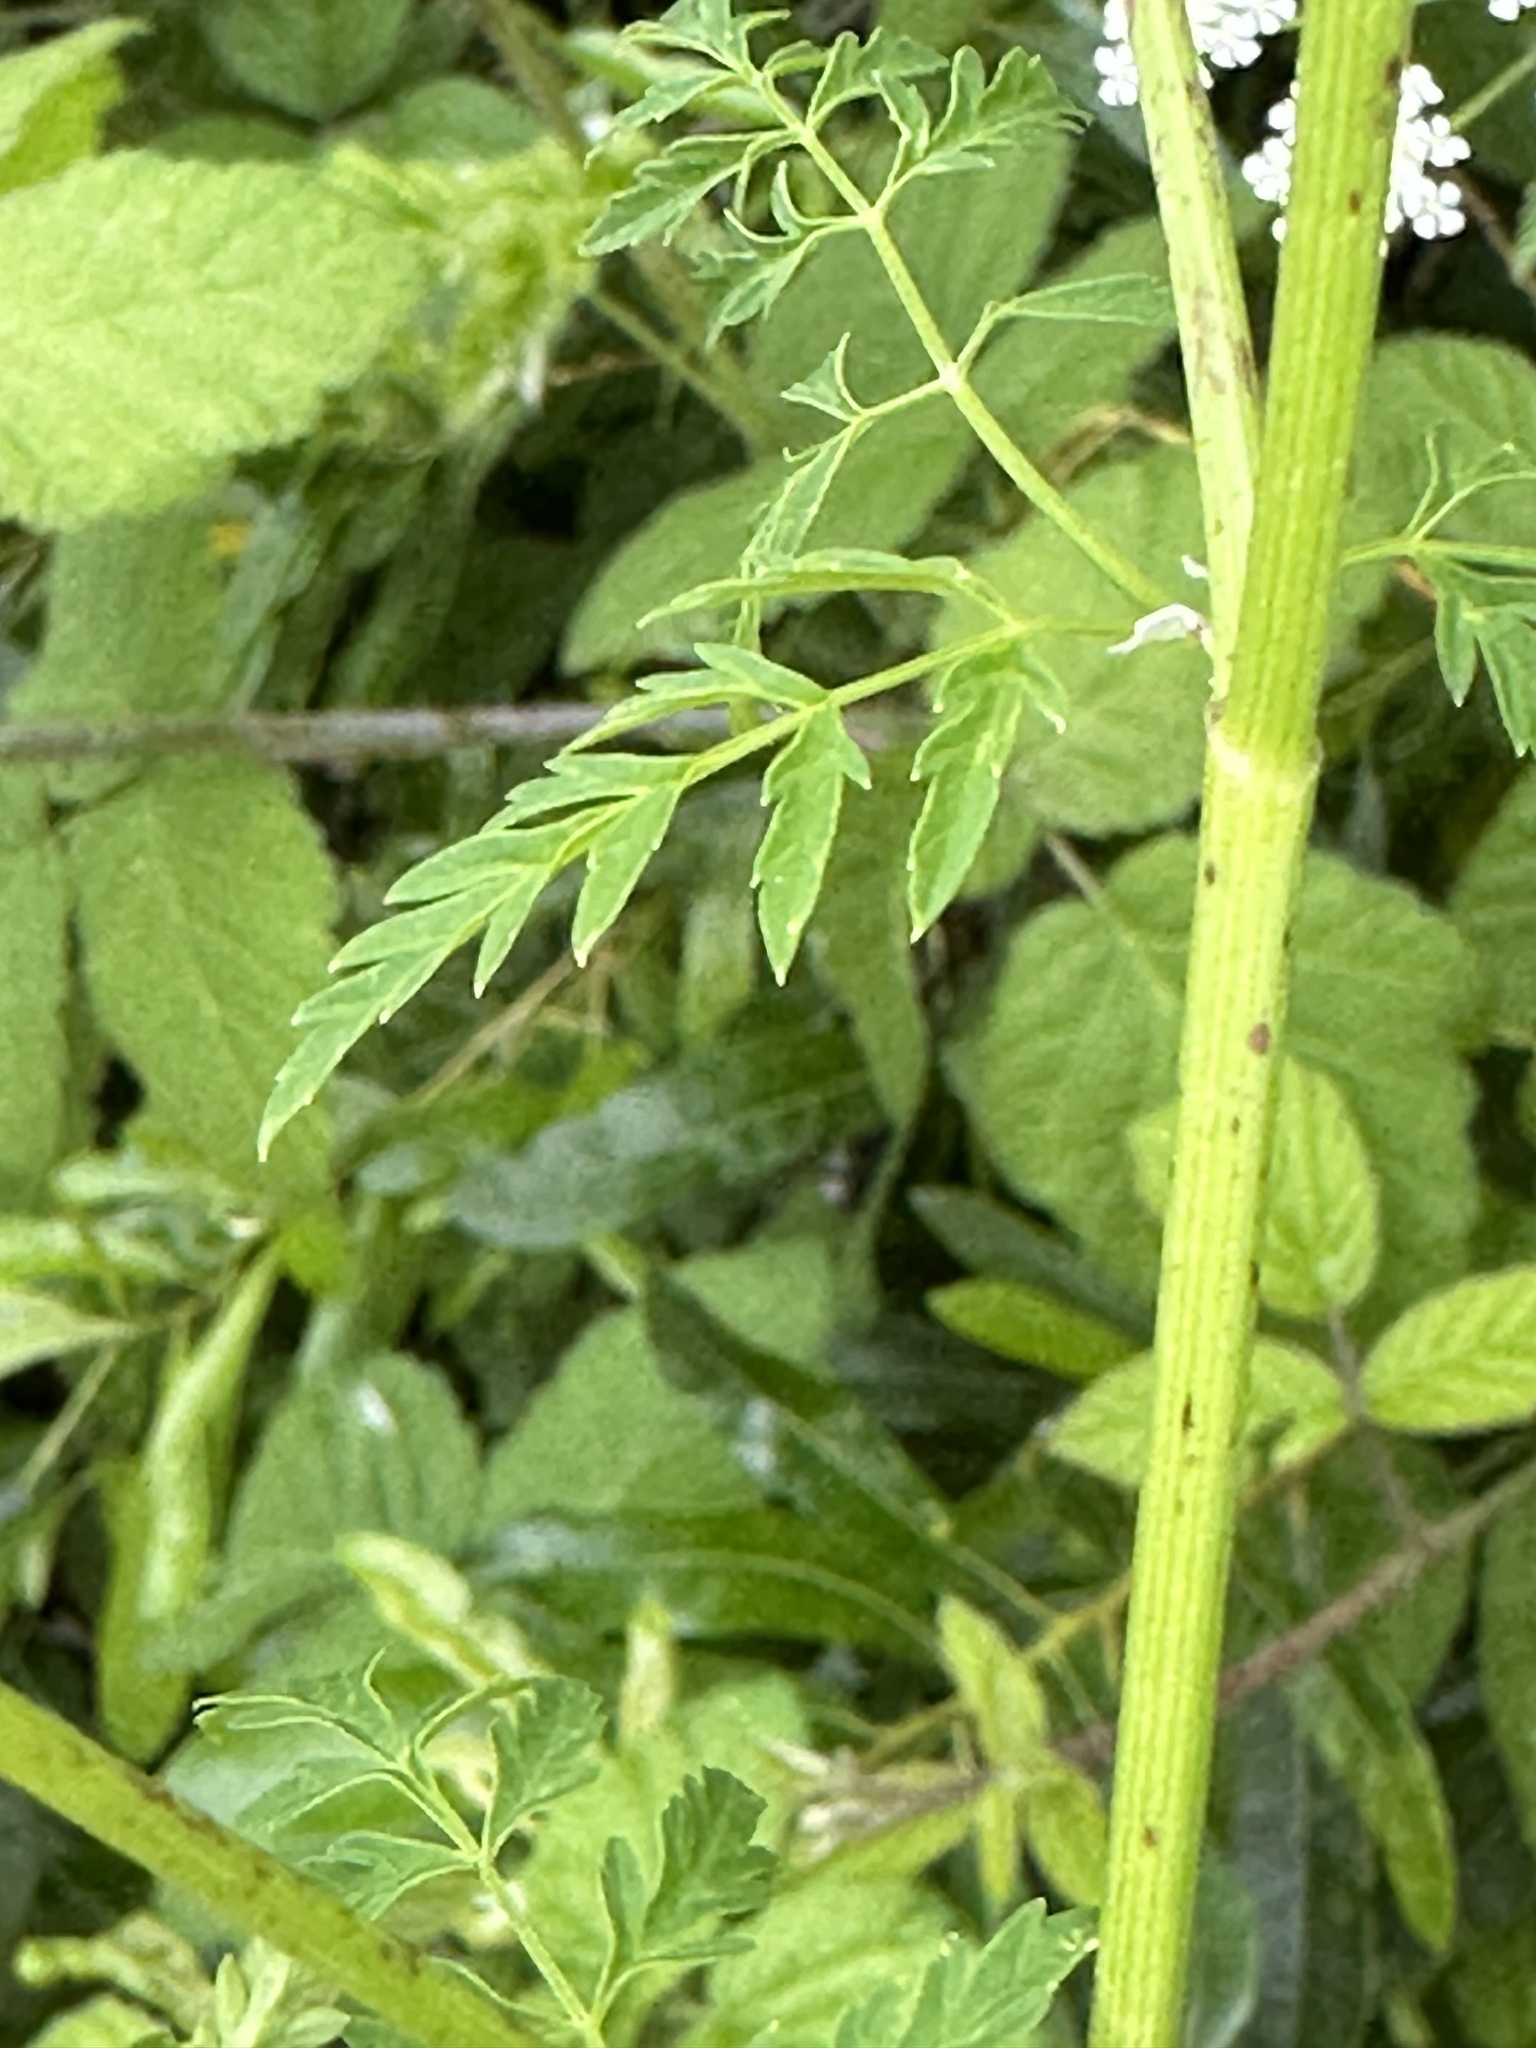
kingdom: Plantae
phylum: Tracheophyta
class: Magnoliopsida
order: Apiales
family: Apiaceae
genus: Conium
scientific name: Conium maculatum
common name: Hemlock
